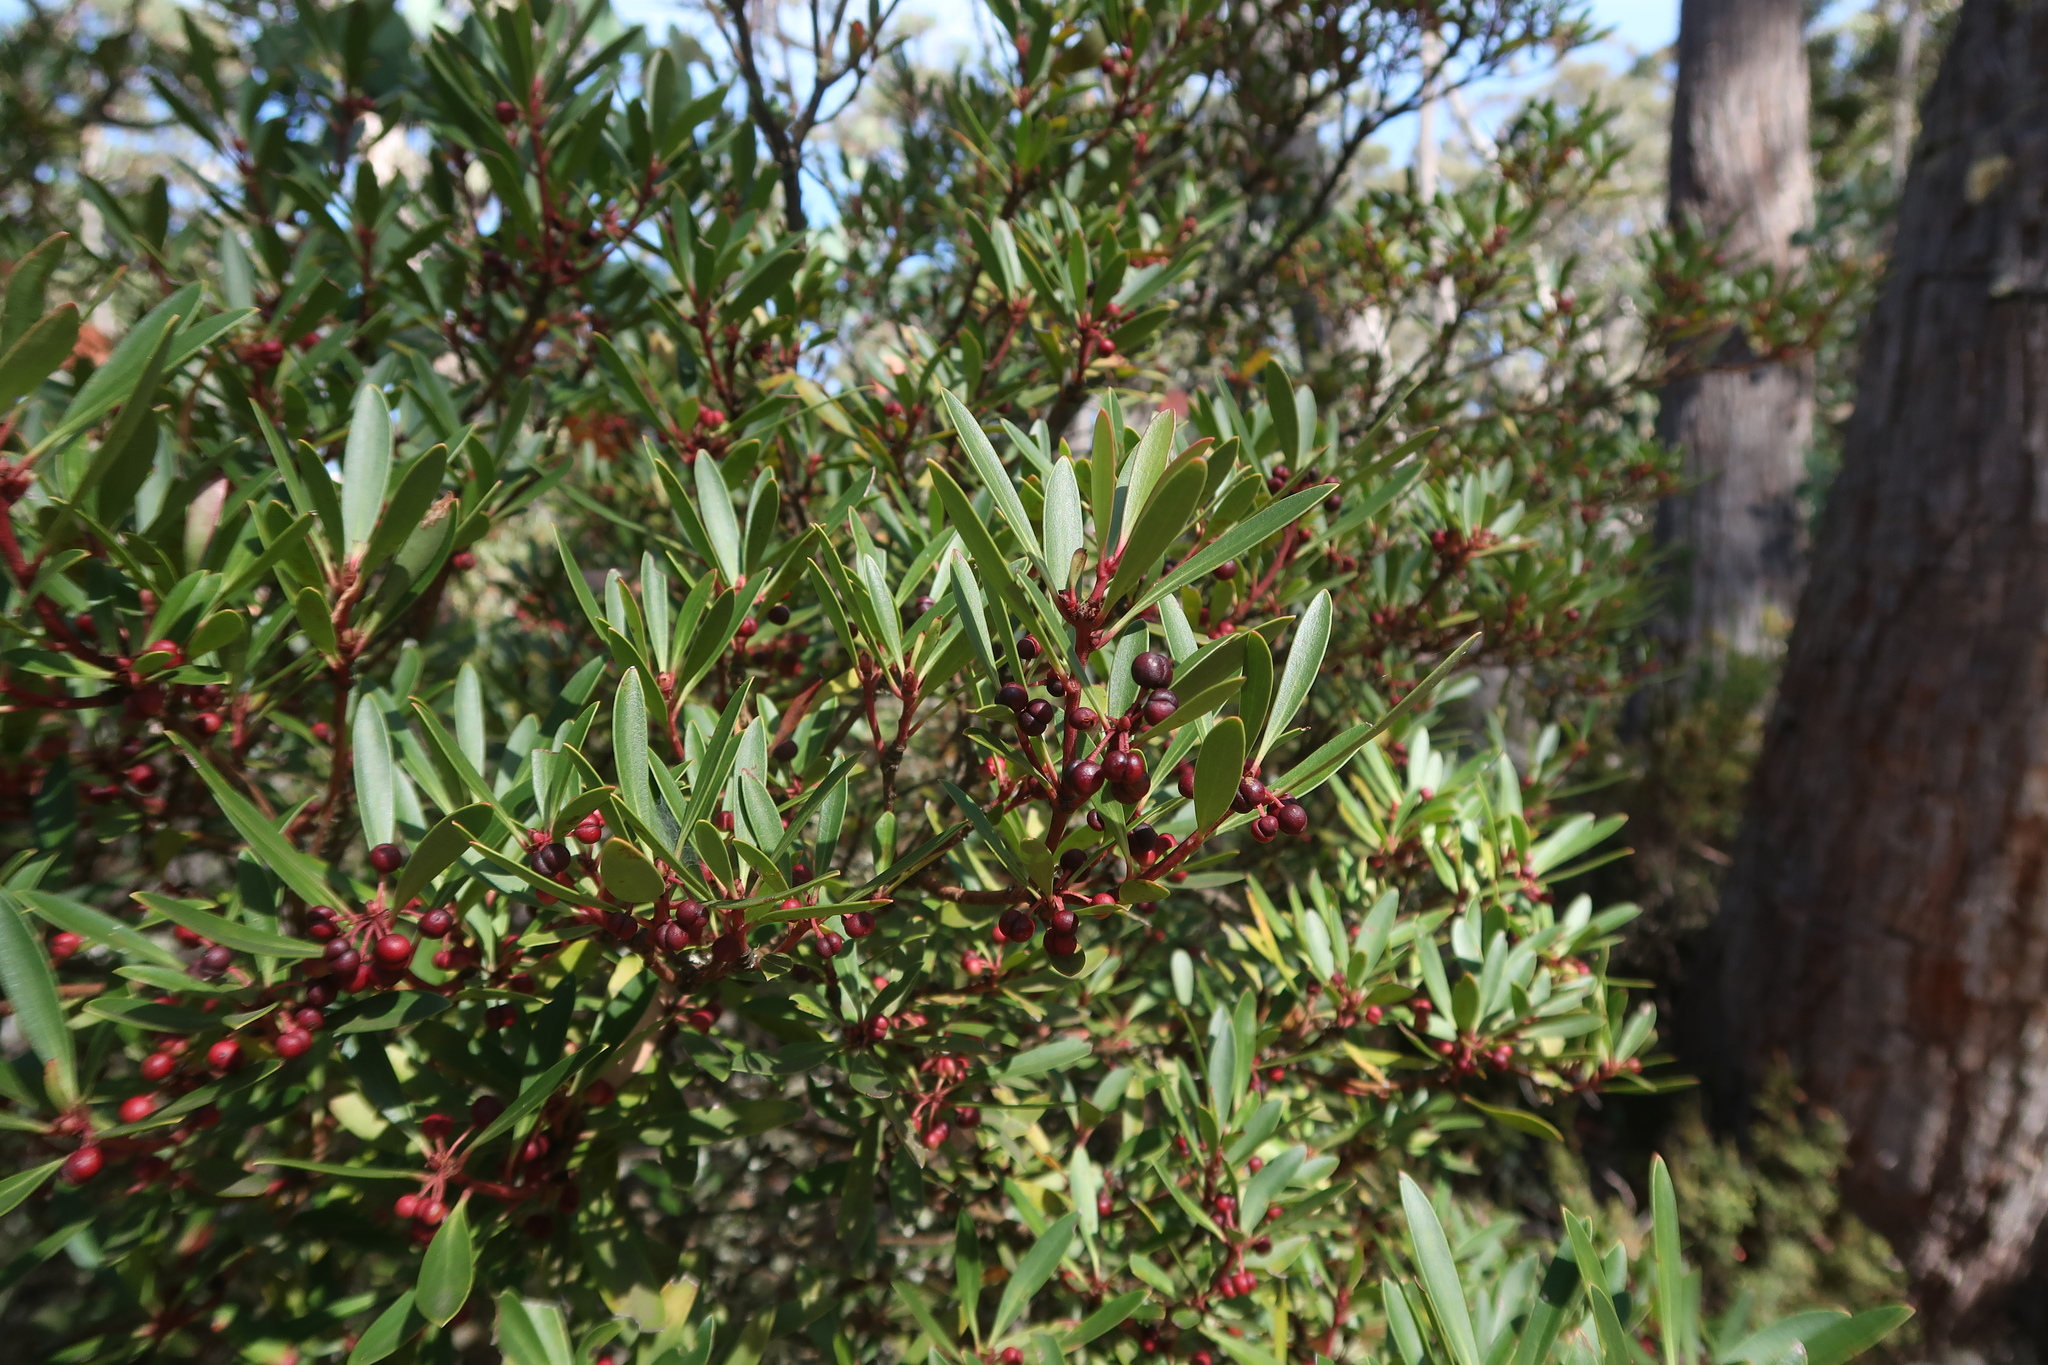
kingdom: Plantae
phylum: Tracheophyta
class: Magnoliopsida
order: Canellales
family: Winteraceae
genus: Drimys
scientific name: Drimys aromatica
